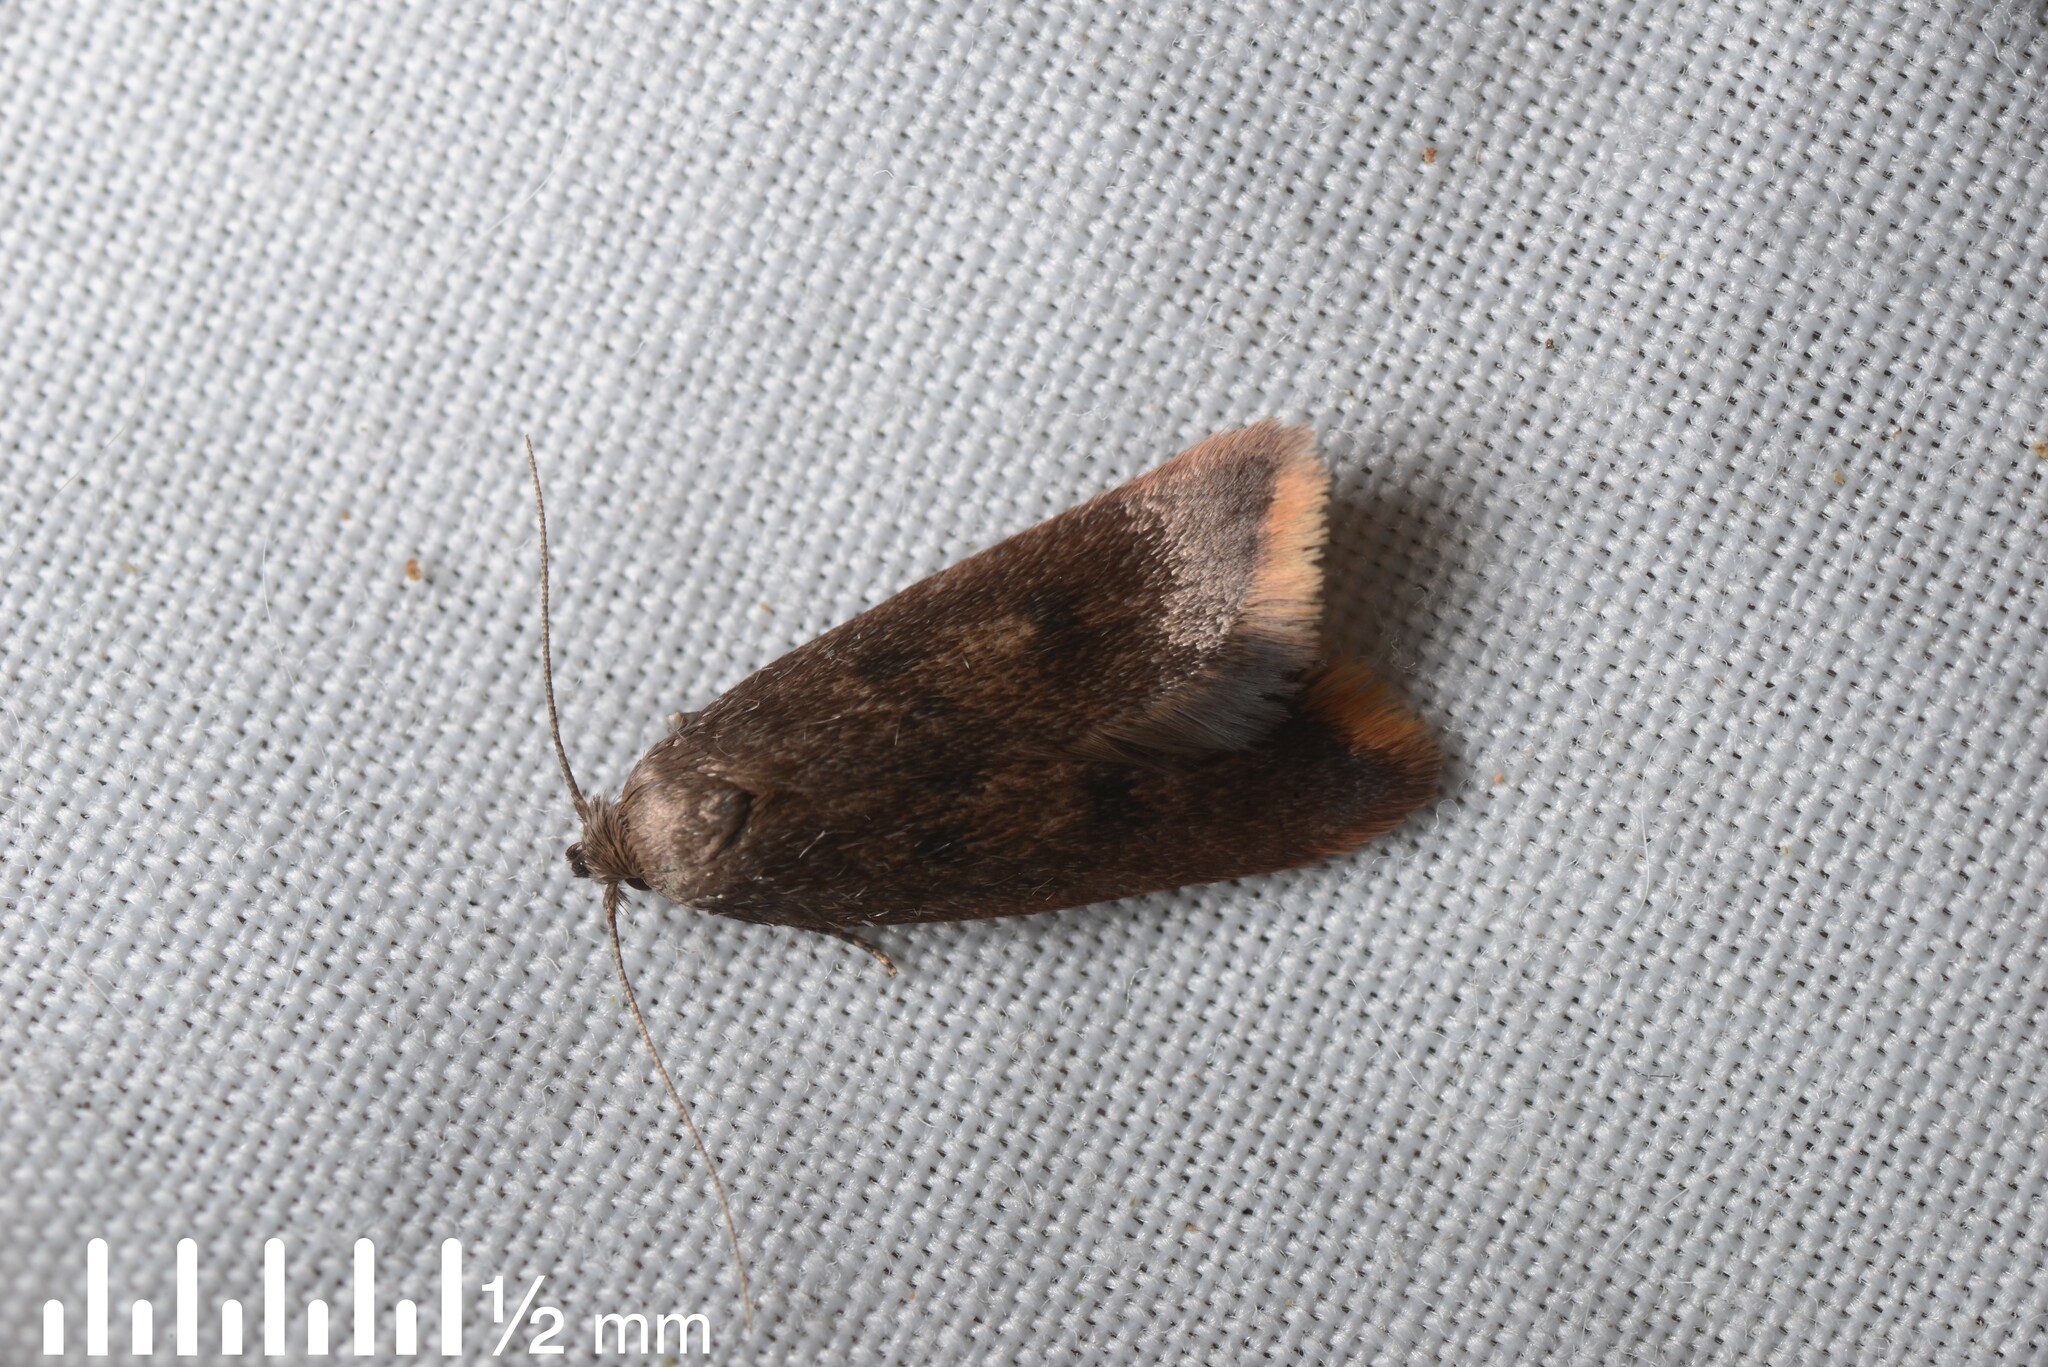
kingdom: Animalia
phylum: Arthropoda
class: Insecta
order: Lepidoptera
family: Oecophoridae
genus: Tachystola
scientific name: Tachystola acroxantha
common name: Ruddy streak
